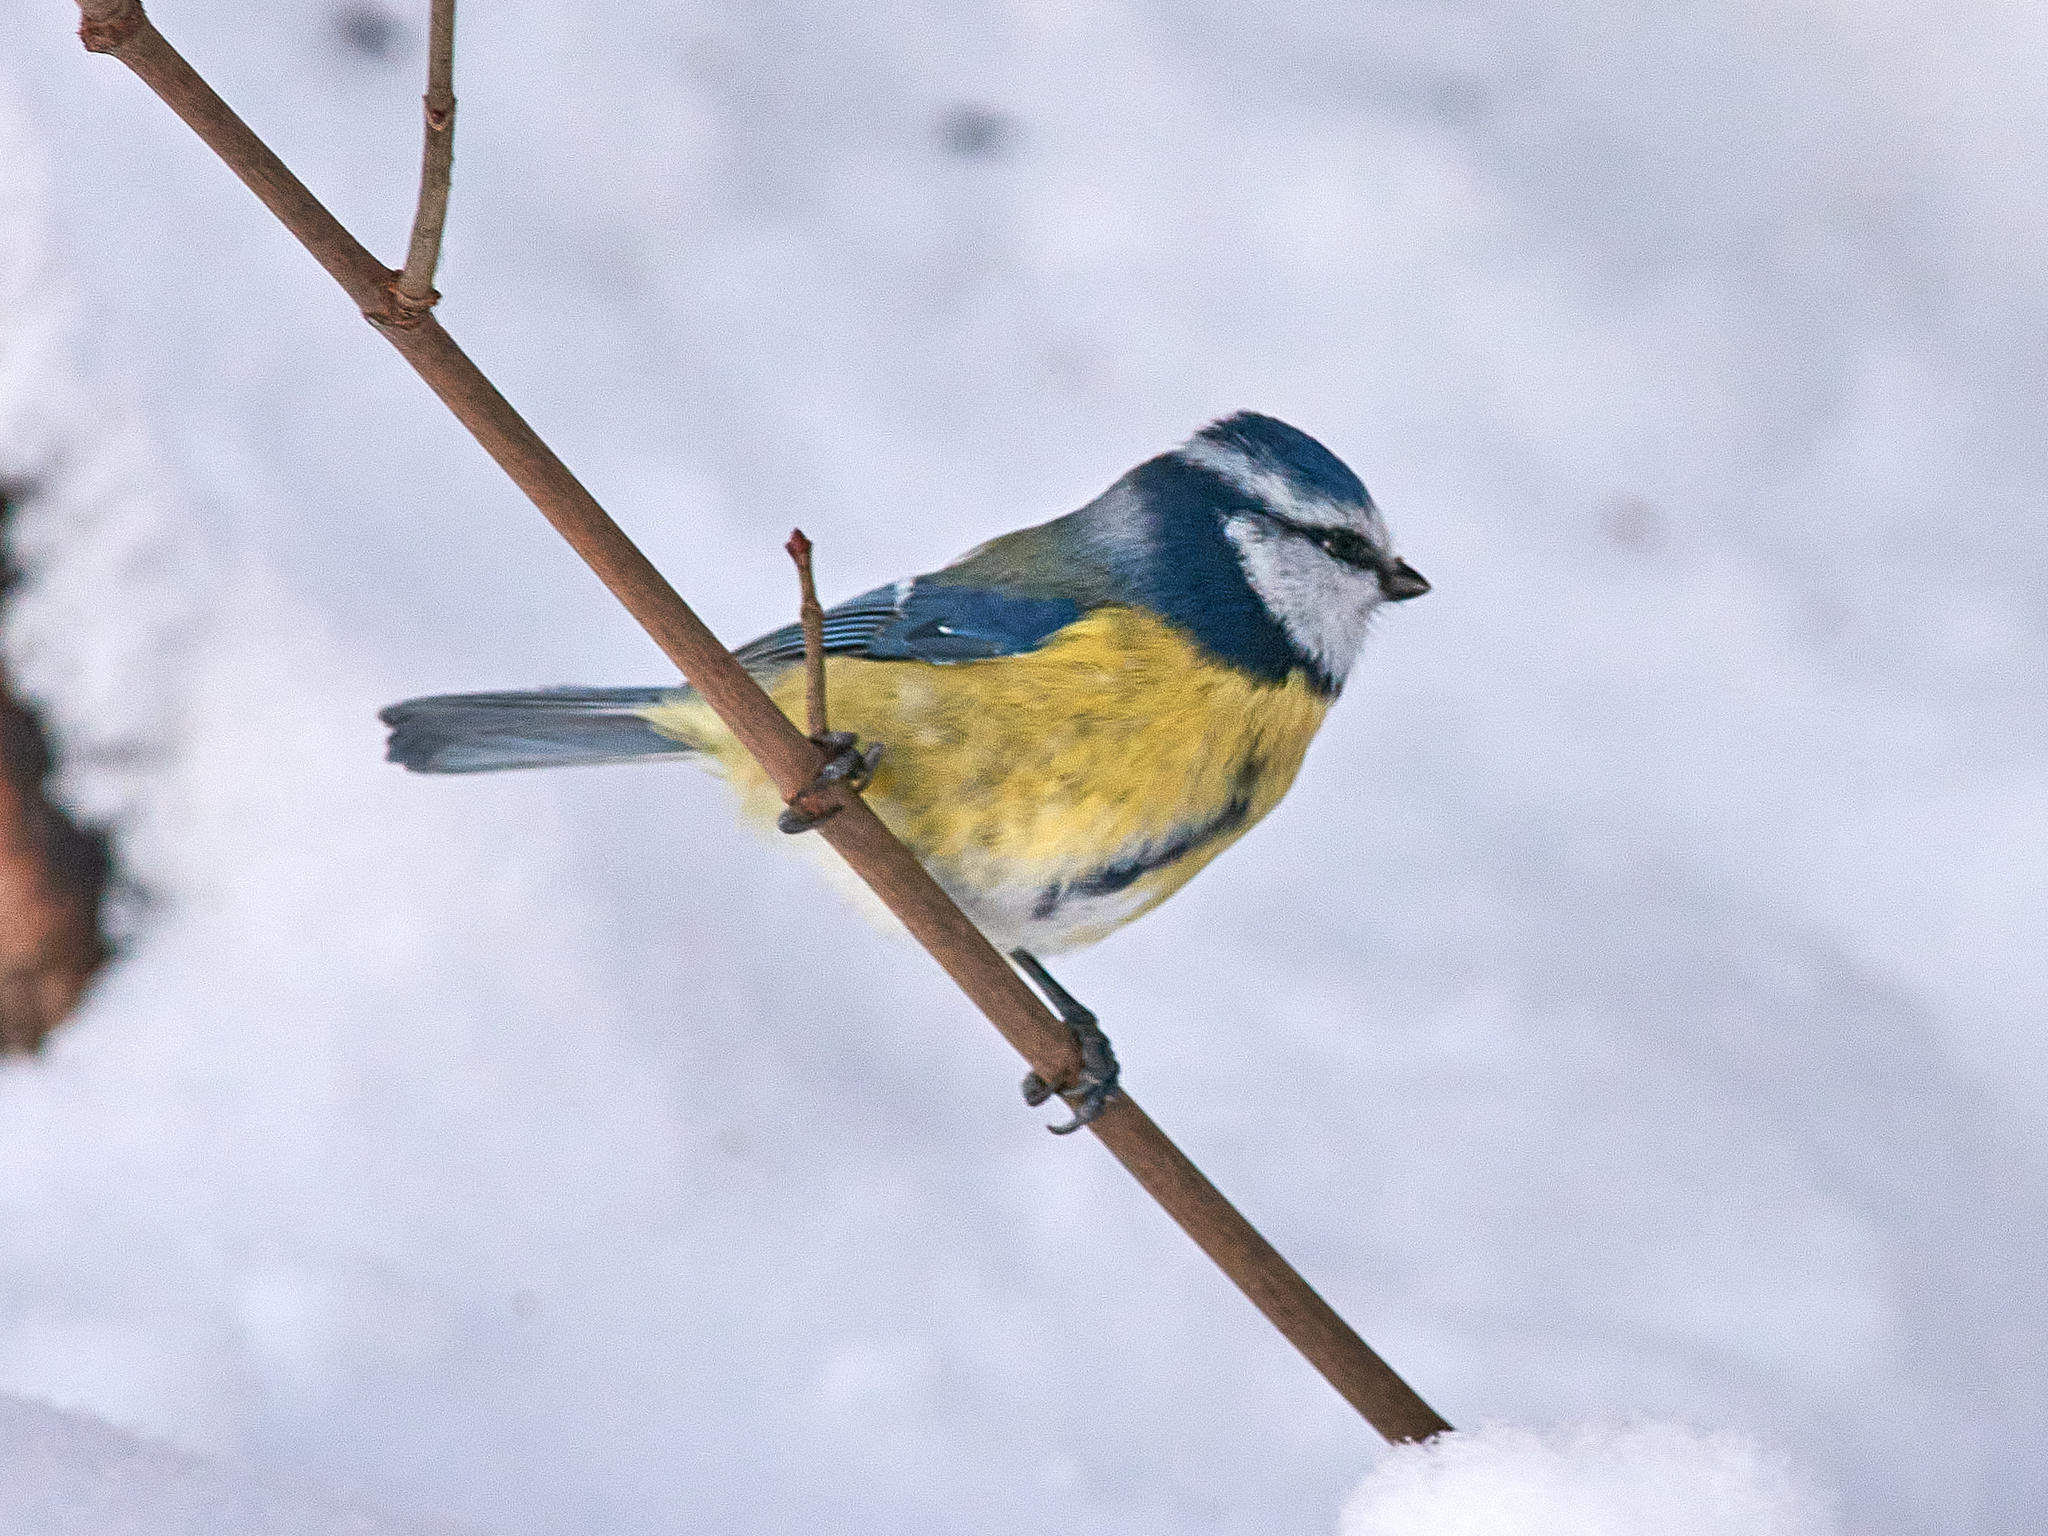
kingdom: Animalia
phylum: Chordata
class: Aves
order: Passeriformes
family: Paridae
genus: Cyanistes
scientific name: Cyanistes caeruleus
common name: Eurasian blue tit
